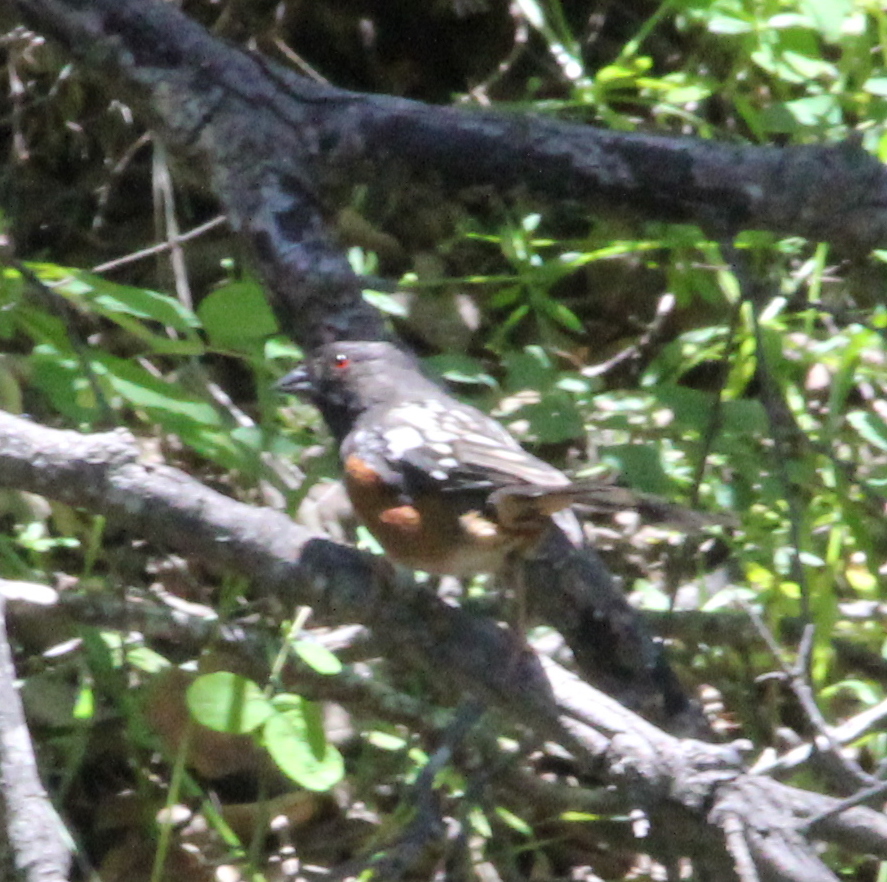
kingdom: Animalia
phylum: Chordata
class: Aves
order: Passeriformes
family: Passerellidae
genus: Pipilo
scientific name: Pipilo maculatus
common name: Spotted towhee
